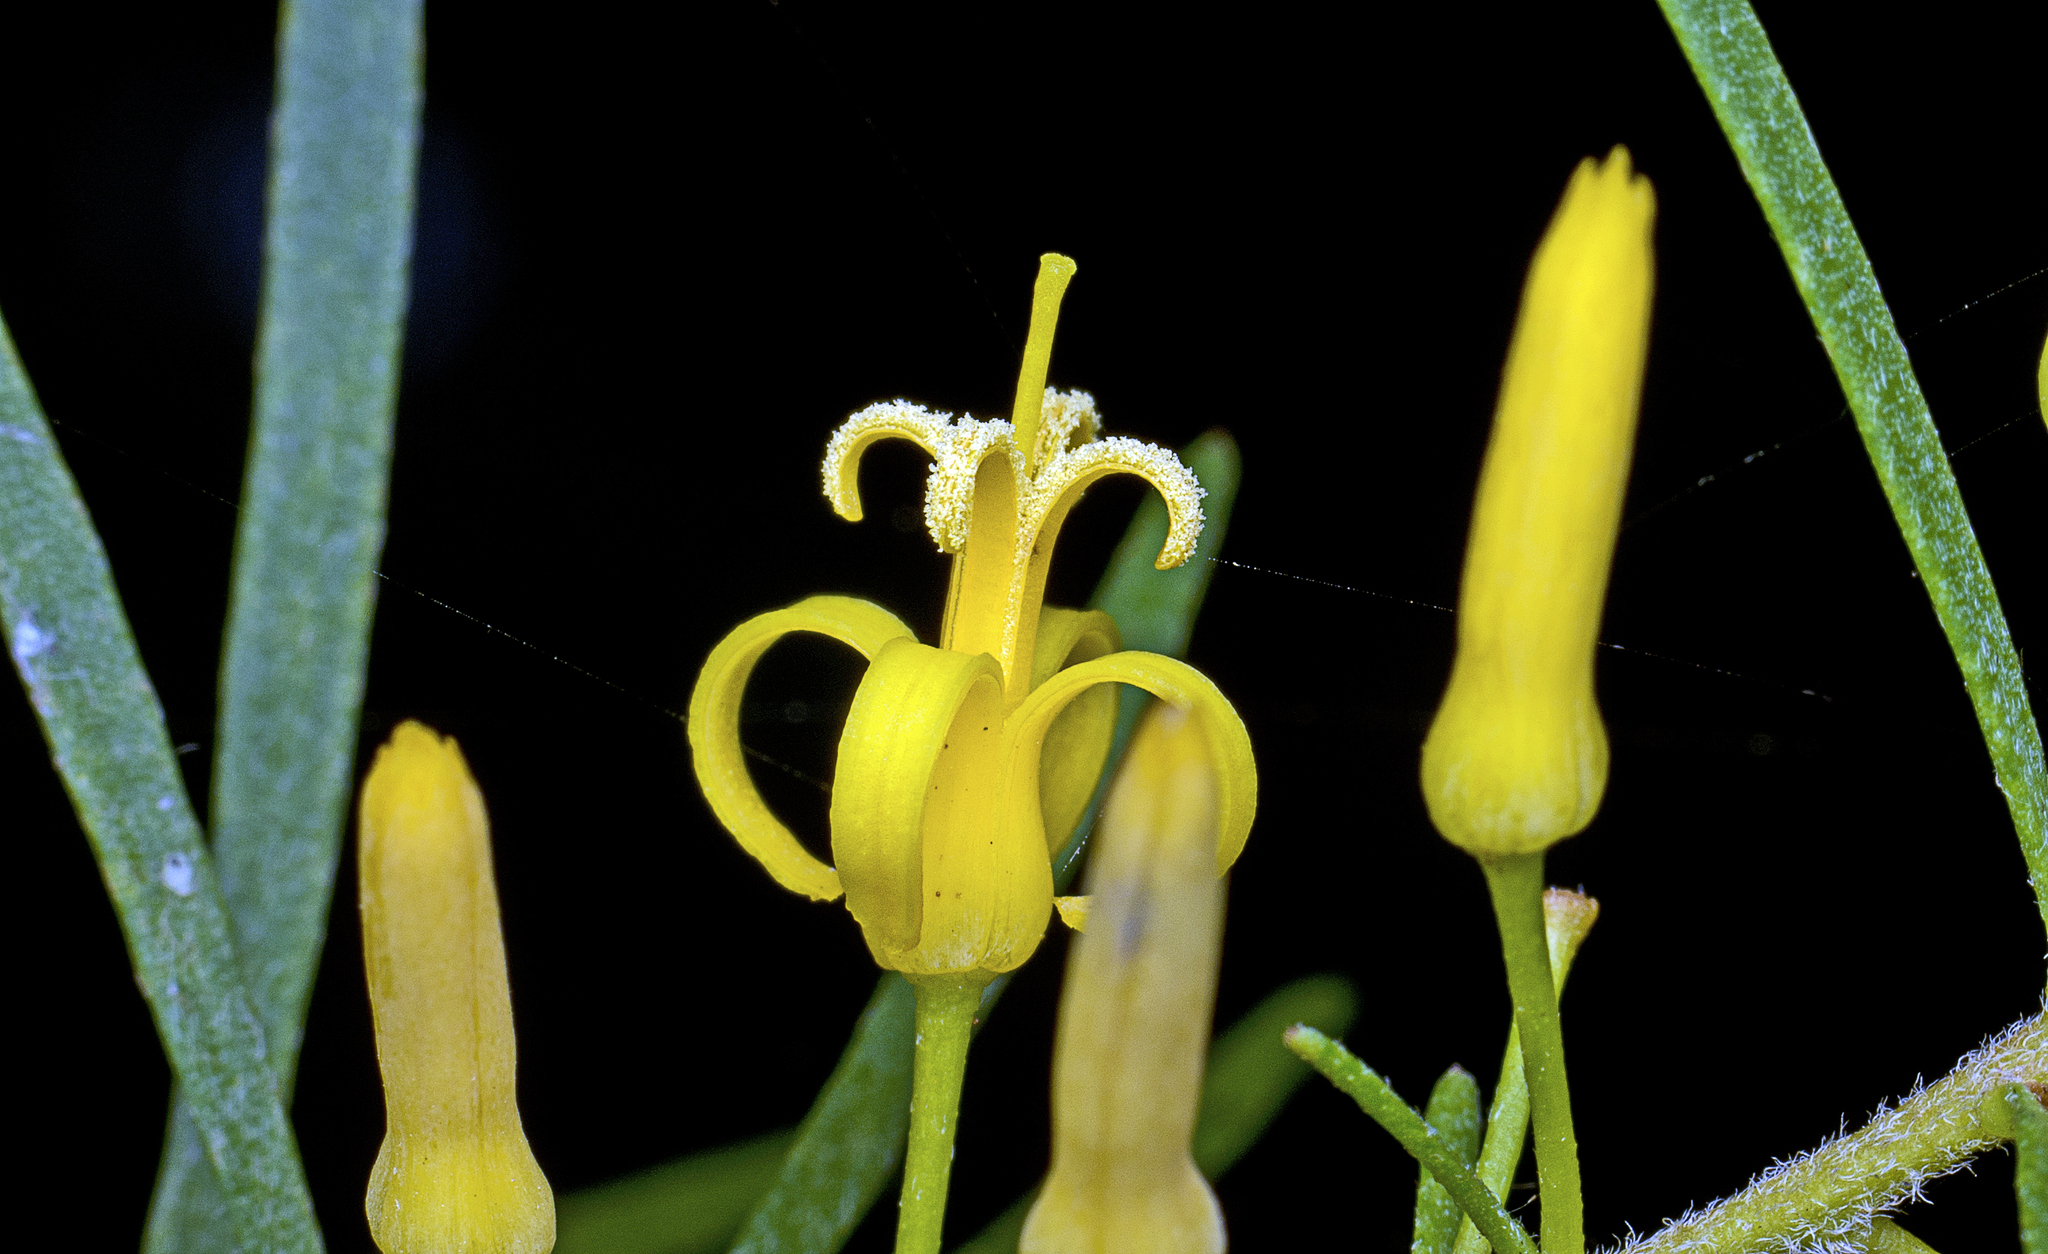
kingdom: Plantae
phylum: Tracheophyta
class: Magnoliopsida
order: Proteales
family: Proteaceae
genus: Persoonia
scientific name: Persoonia virgata
